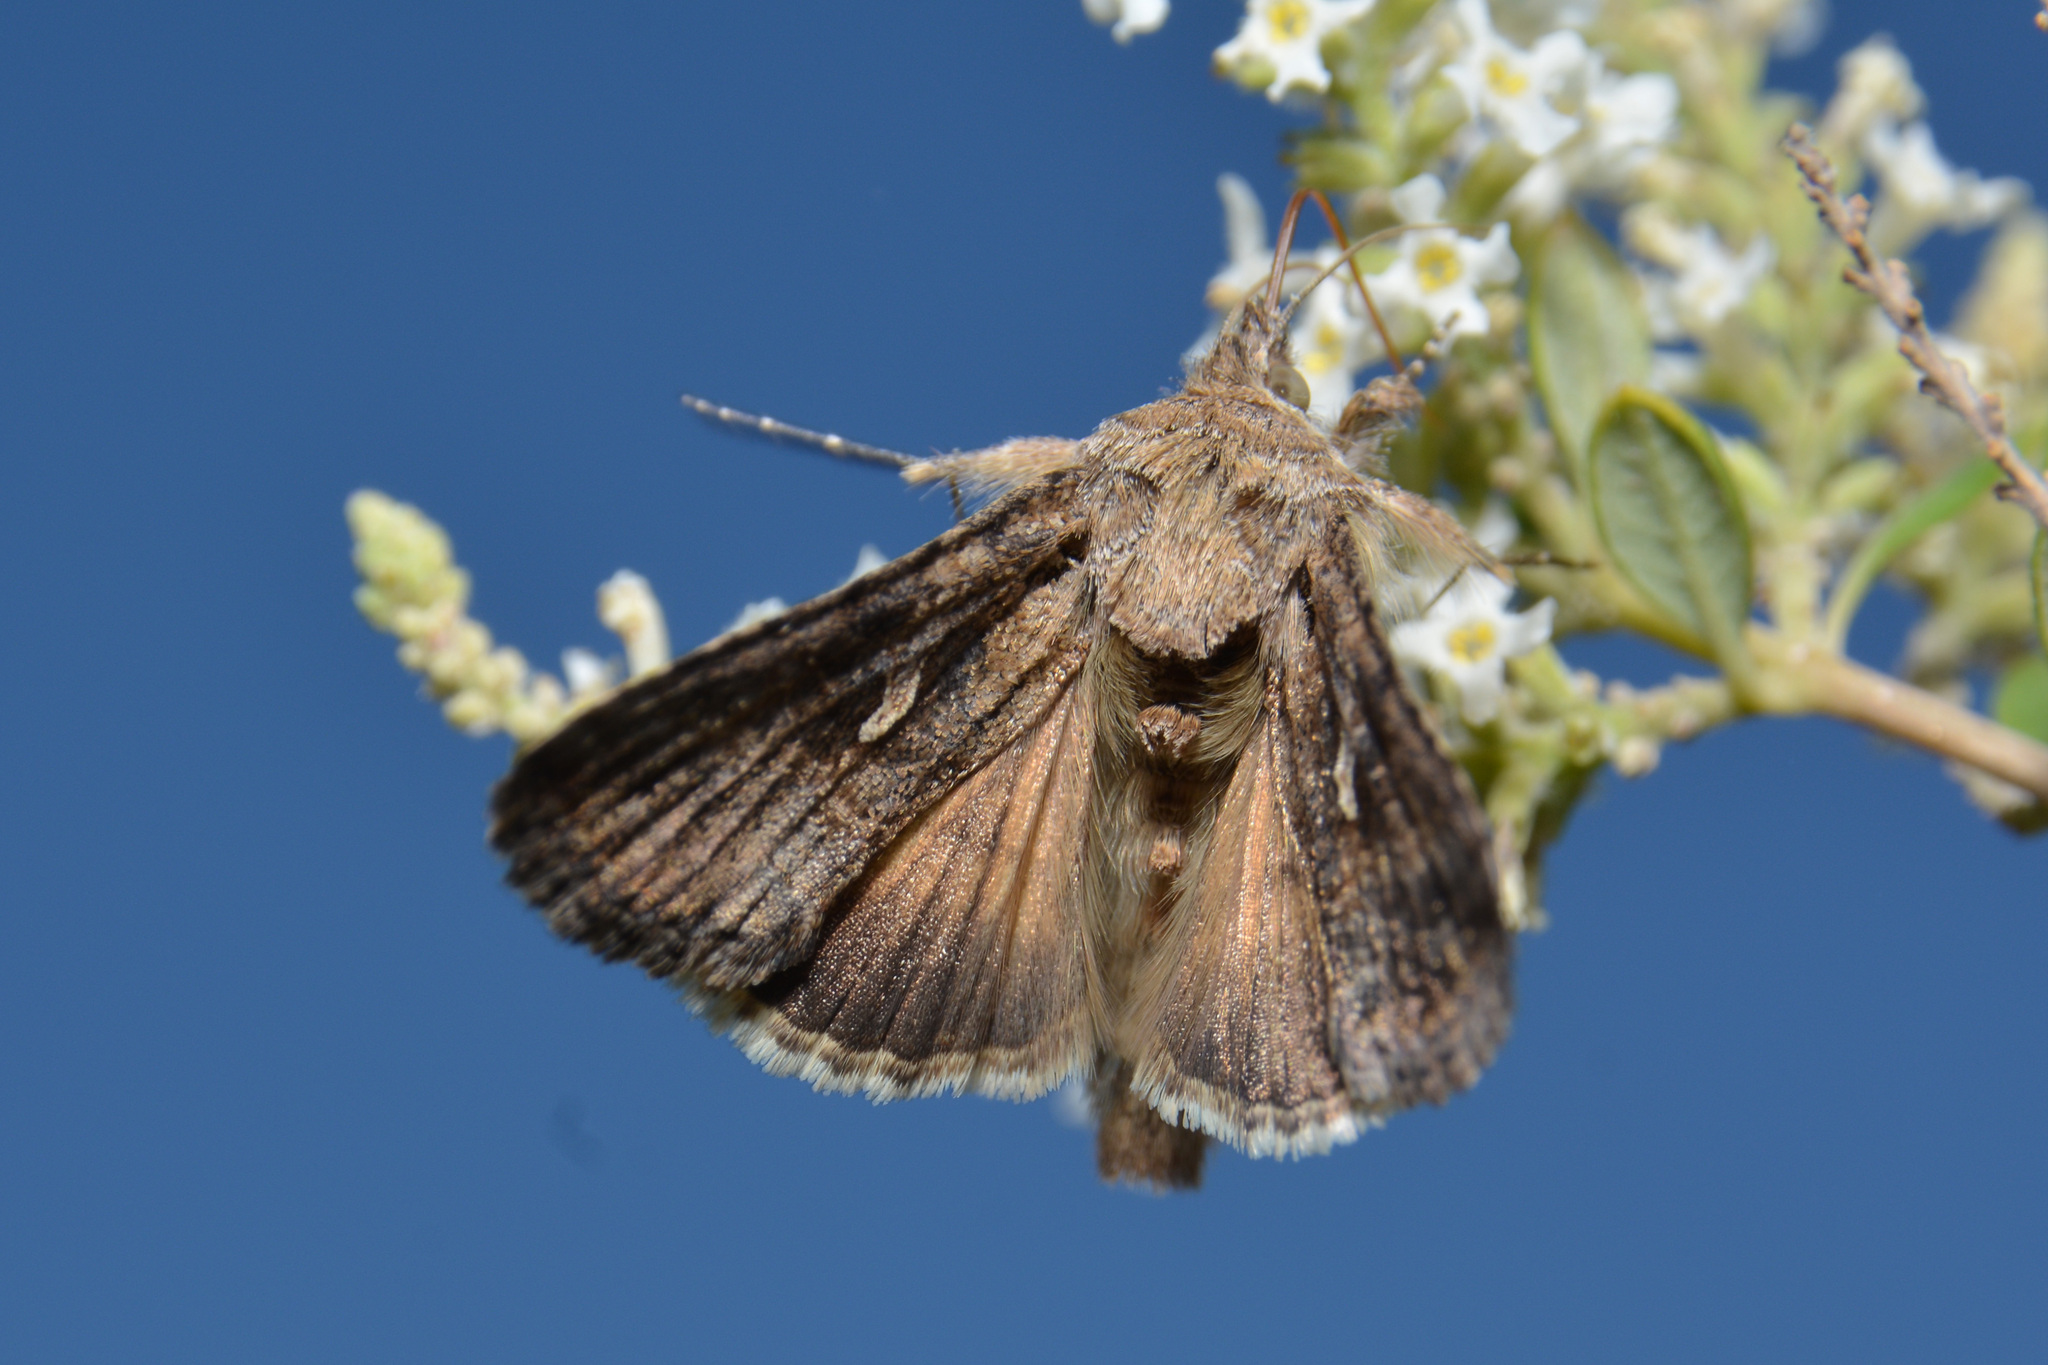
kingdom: Animalia
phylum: Arthropoda
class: Insecta
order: Lepidoptera
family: Noctuidae
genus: Rachiplusia
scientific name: Rachiplusia nu
